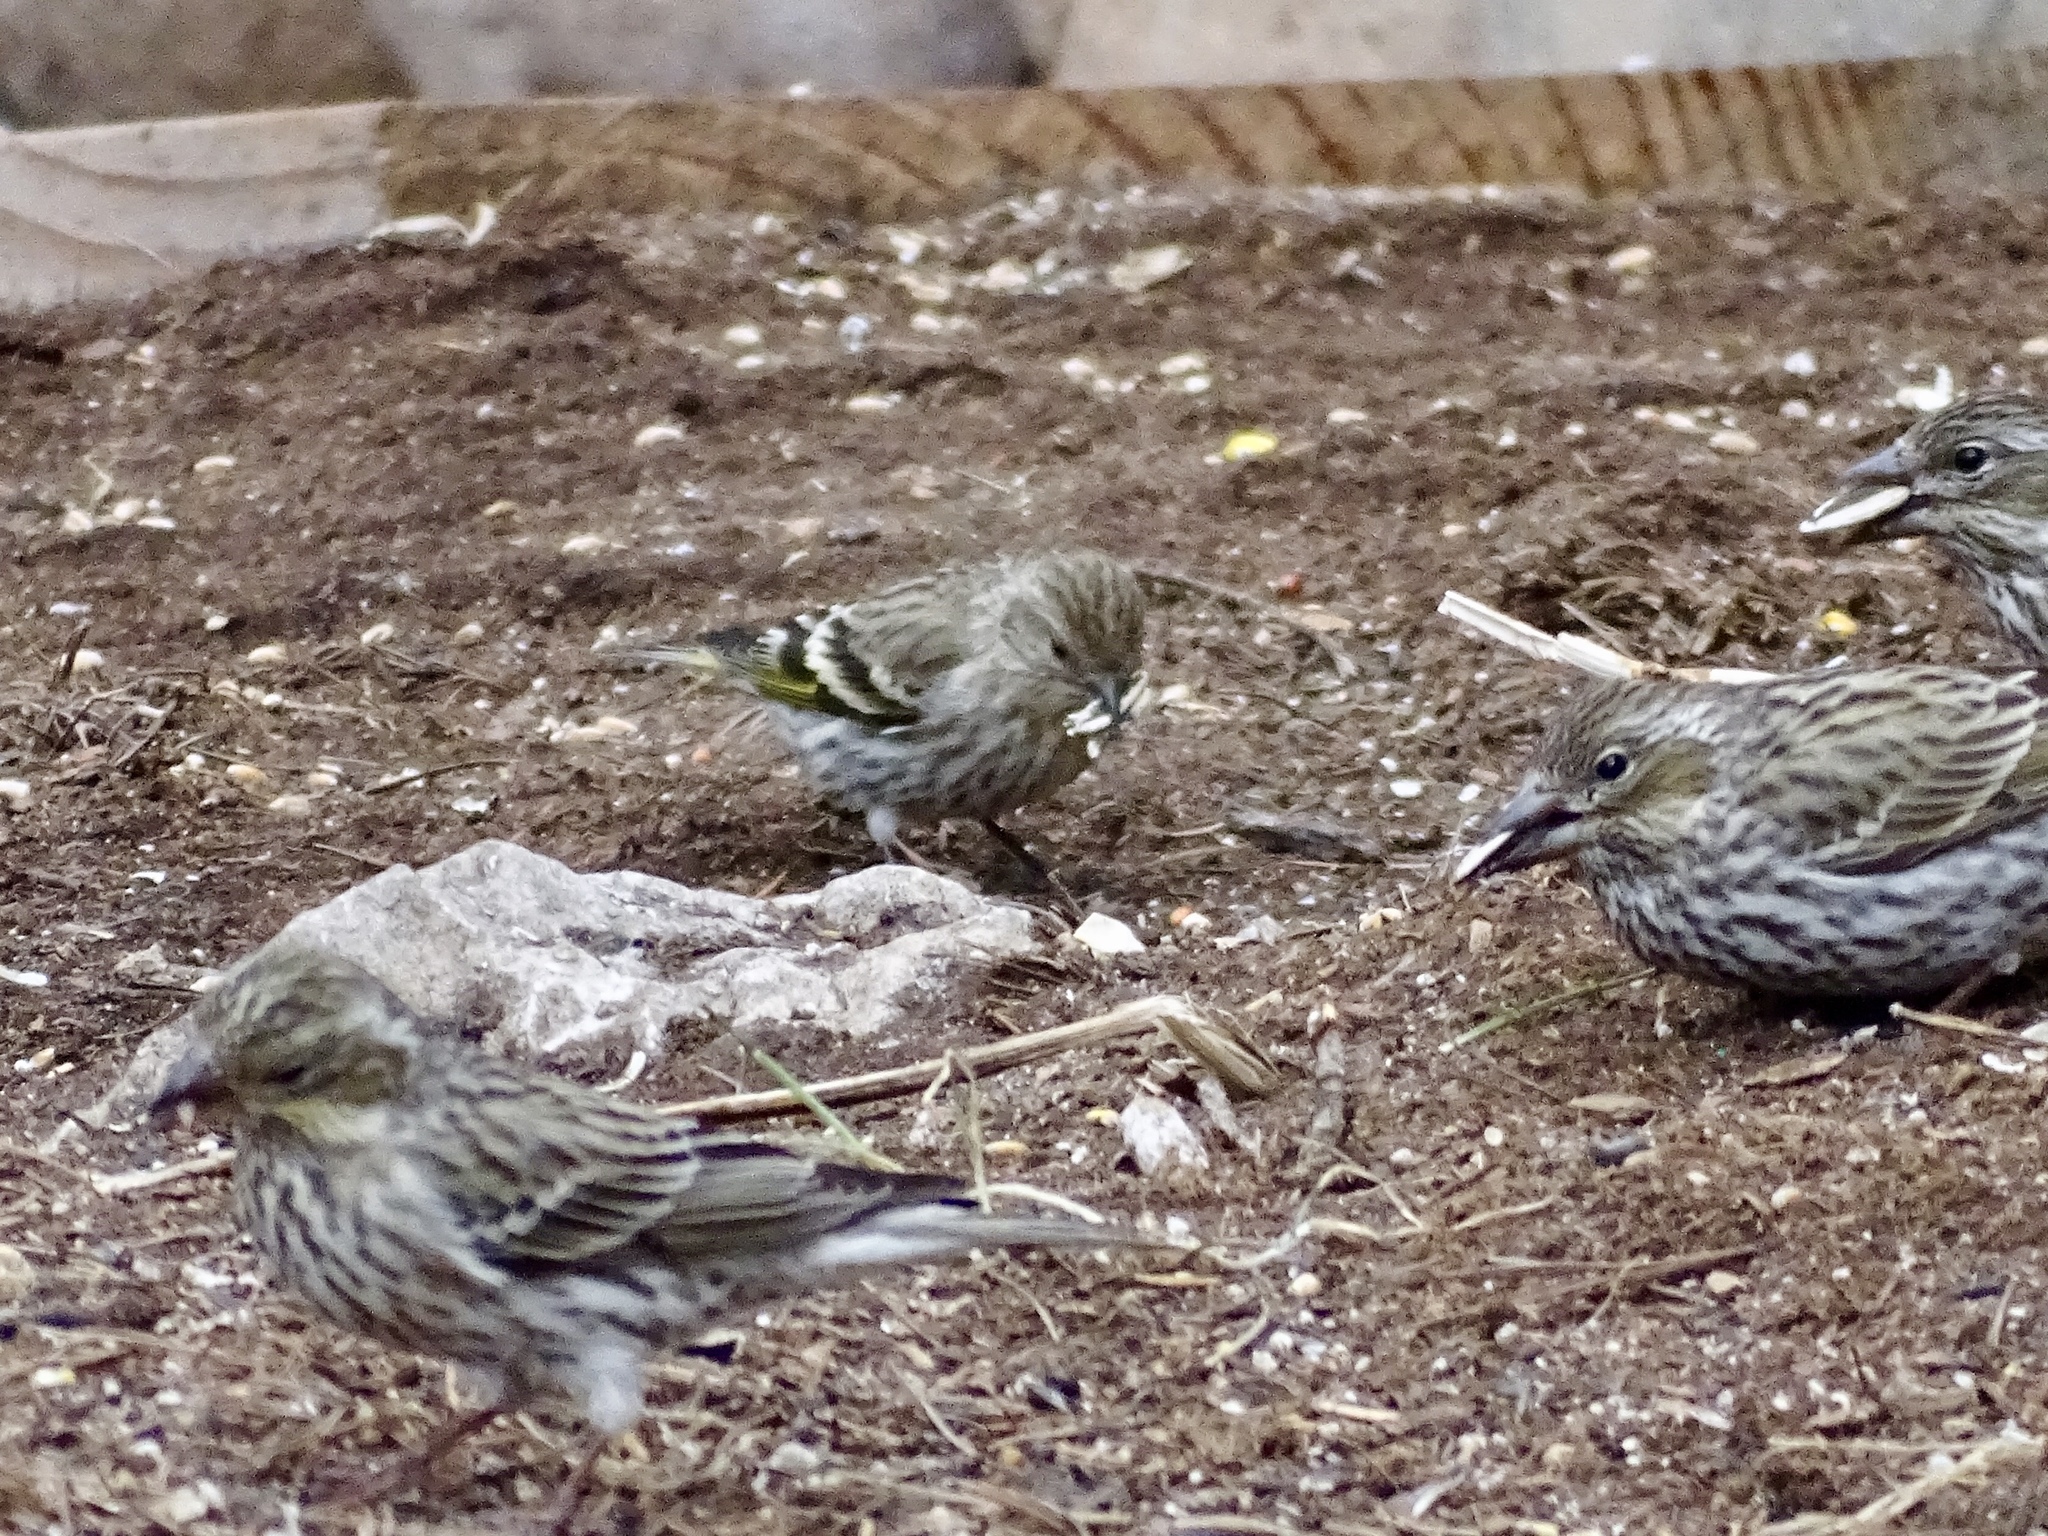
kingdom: Animalia
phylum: Chordata
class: Aves
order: Passeriformes
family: Fringillidae
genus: Spinus
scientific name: Spinus pinus
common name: Pine siskin
